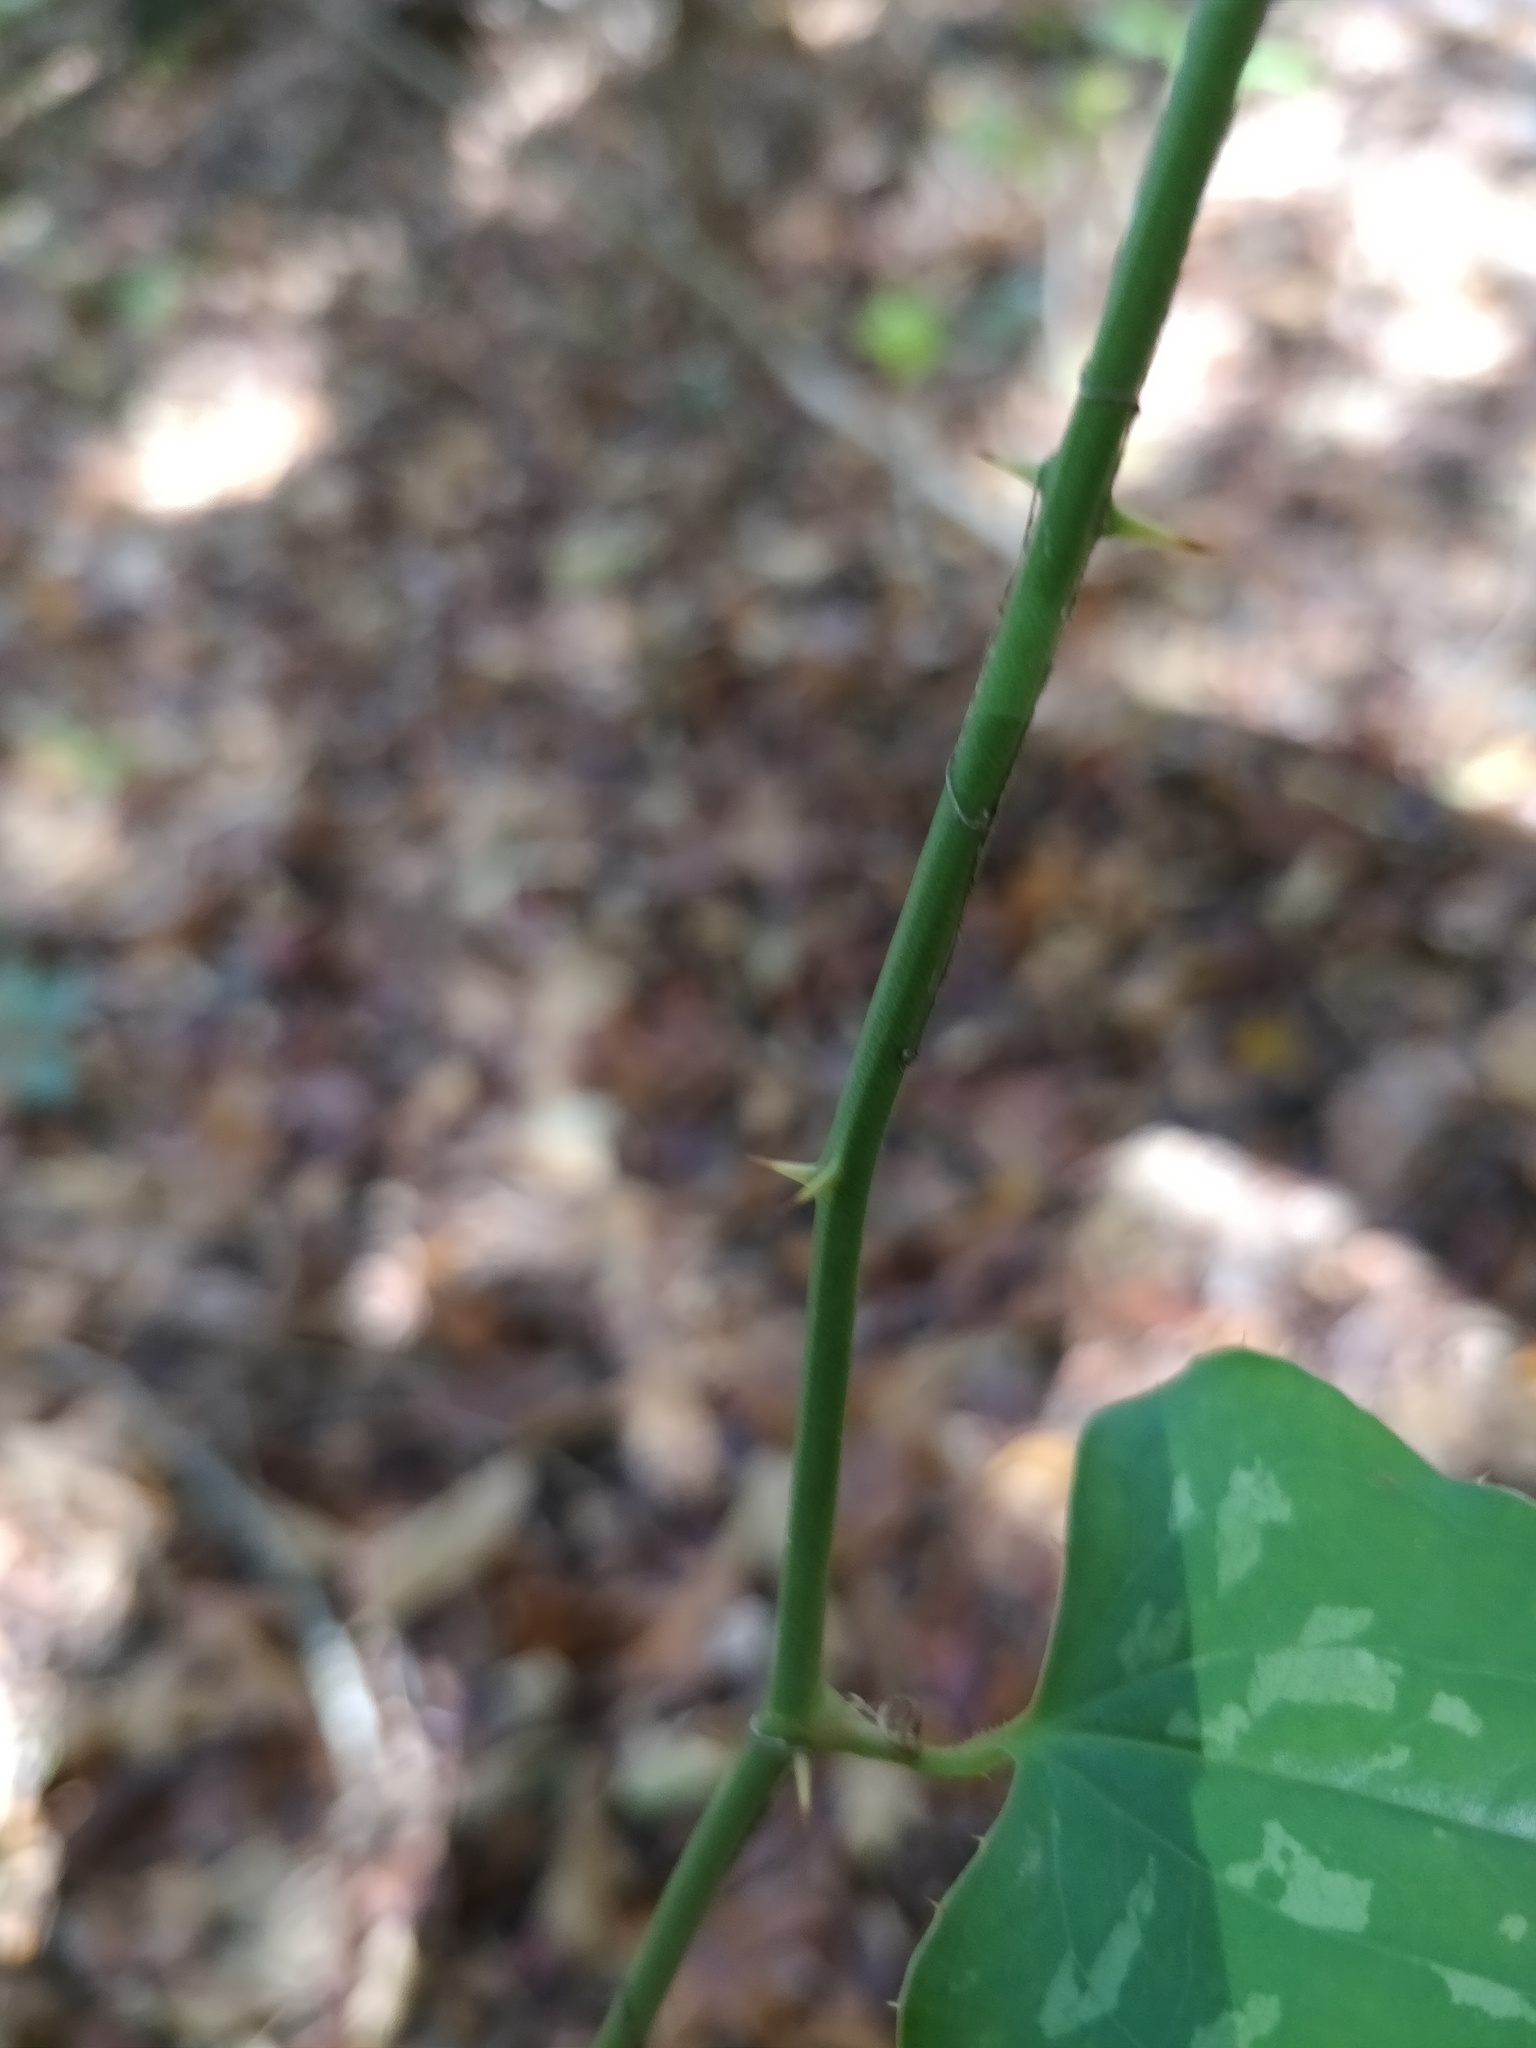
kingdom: Plantae
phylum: Tracheophyta
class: Liliopsida
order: Liliales
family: Smilacaceae
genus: Smilax
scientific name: Smilax bona-nox
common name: Catbrier
